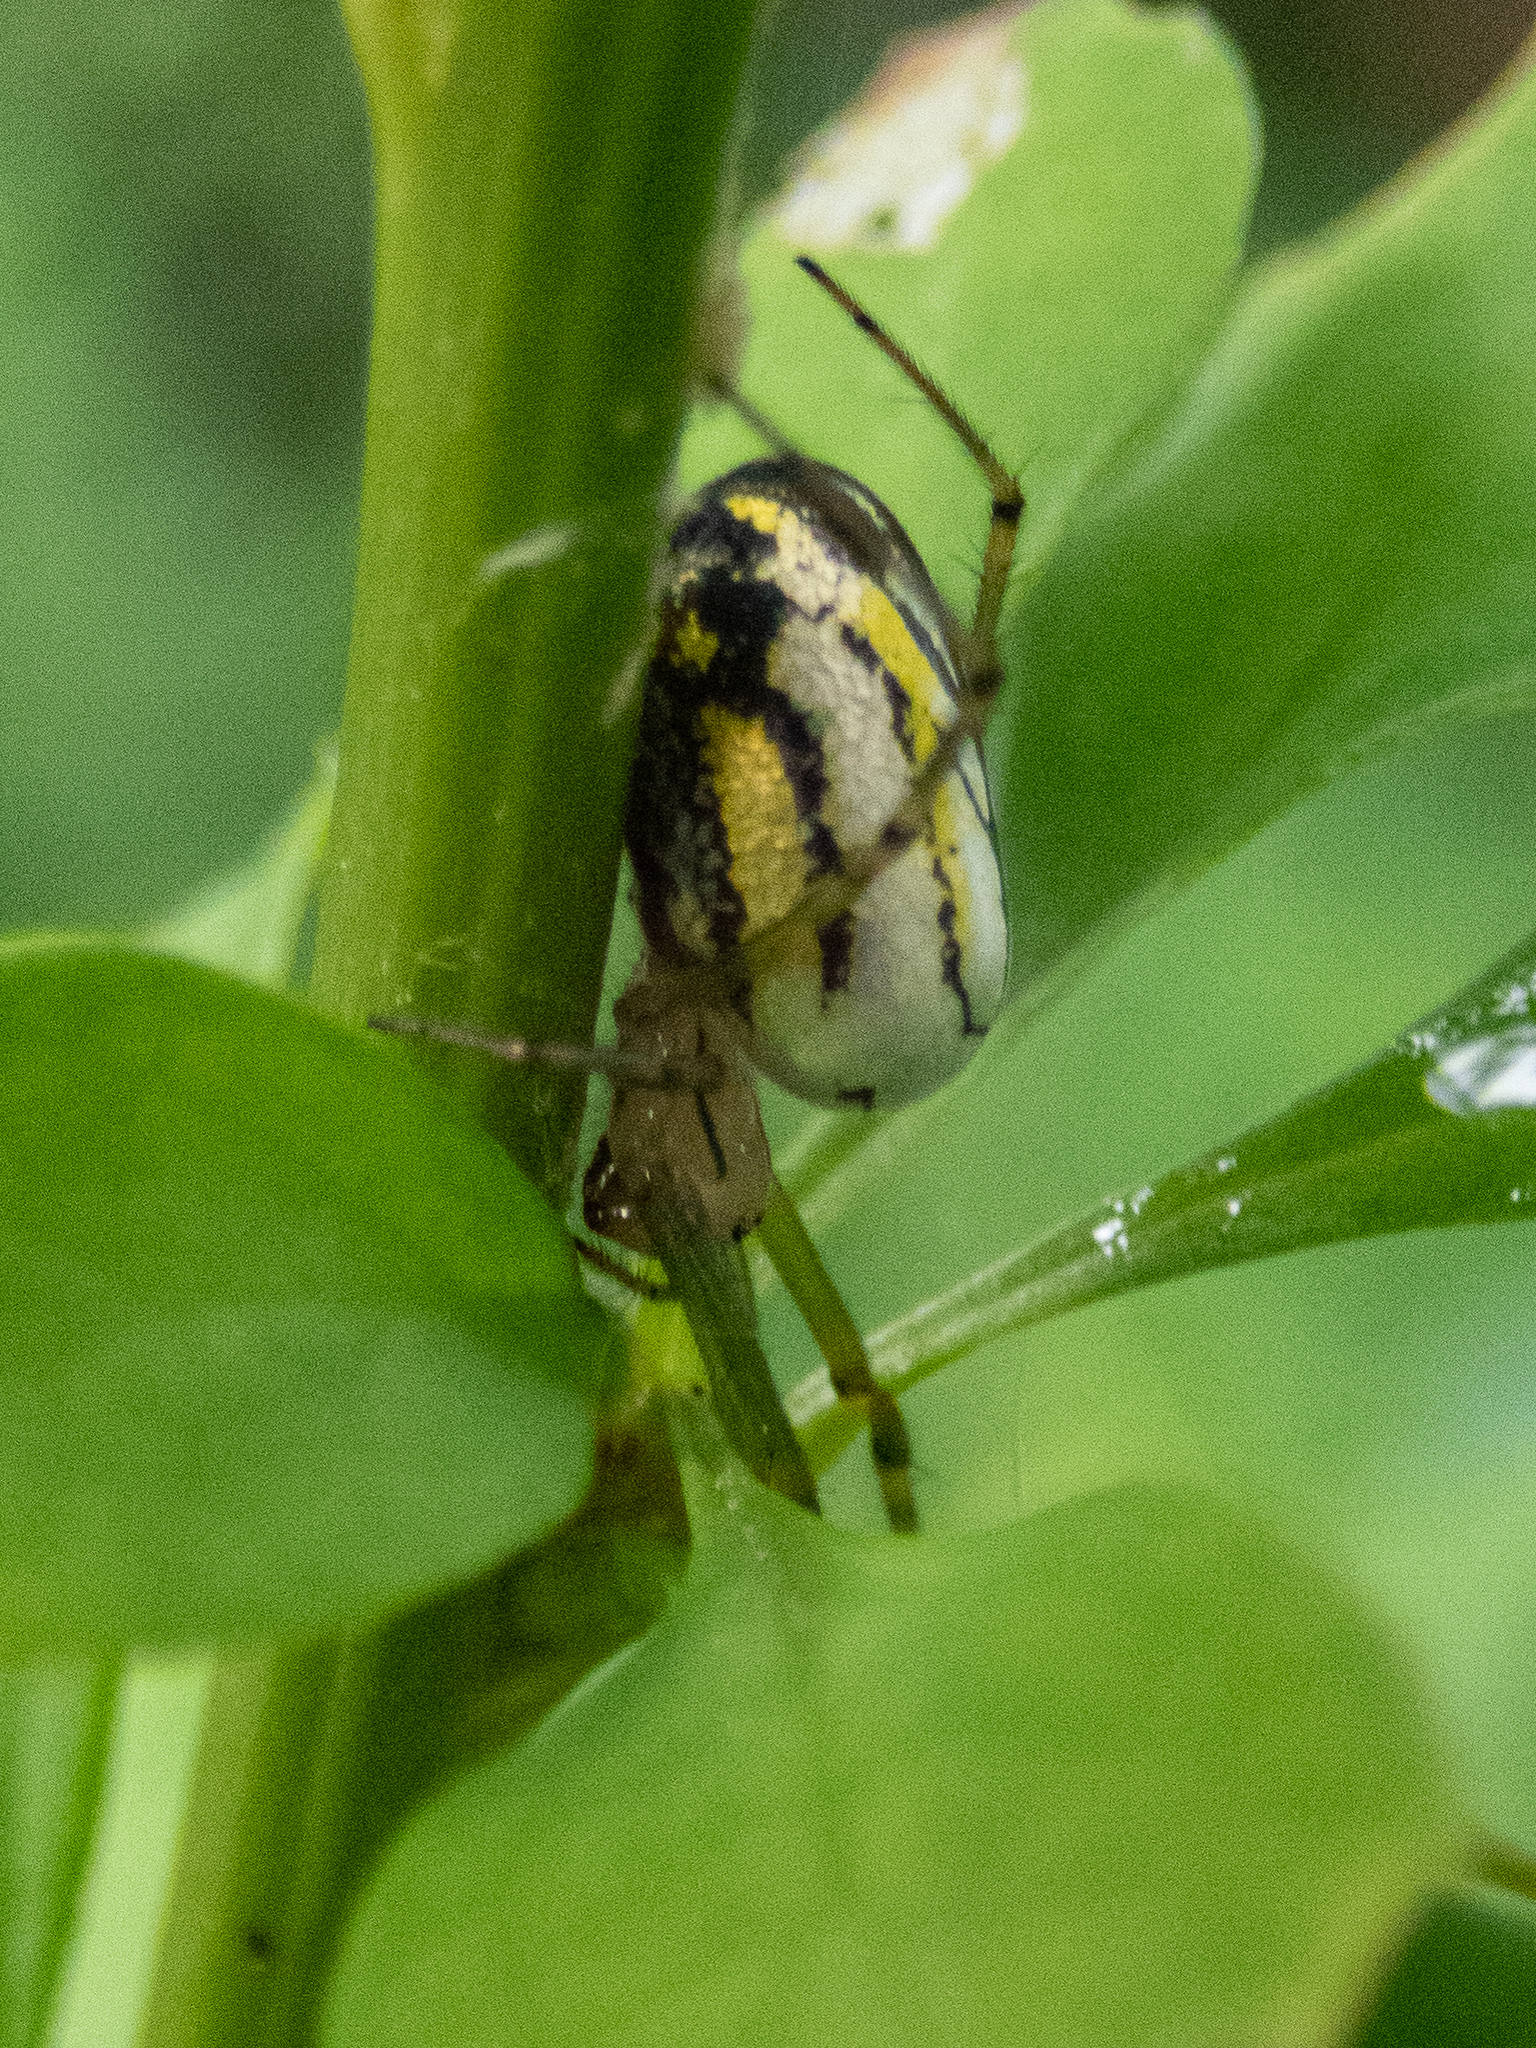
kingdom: Animalia
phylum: Arthropoda
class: Arachnida
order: Araneae
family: Tetragnathidae
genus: Leucauge
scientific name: Leucauge venusta
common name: Longjawed orb weavers
